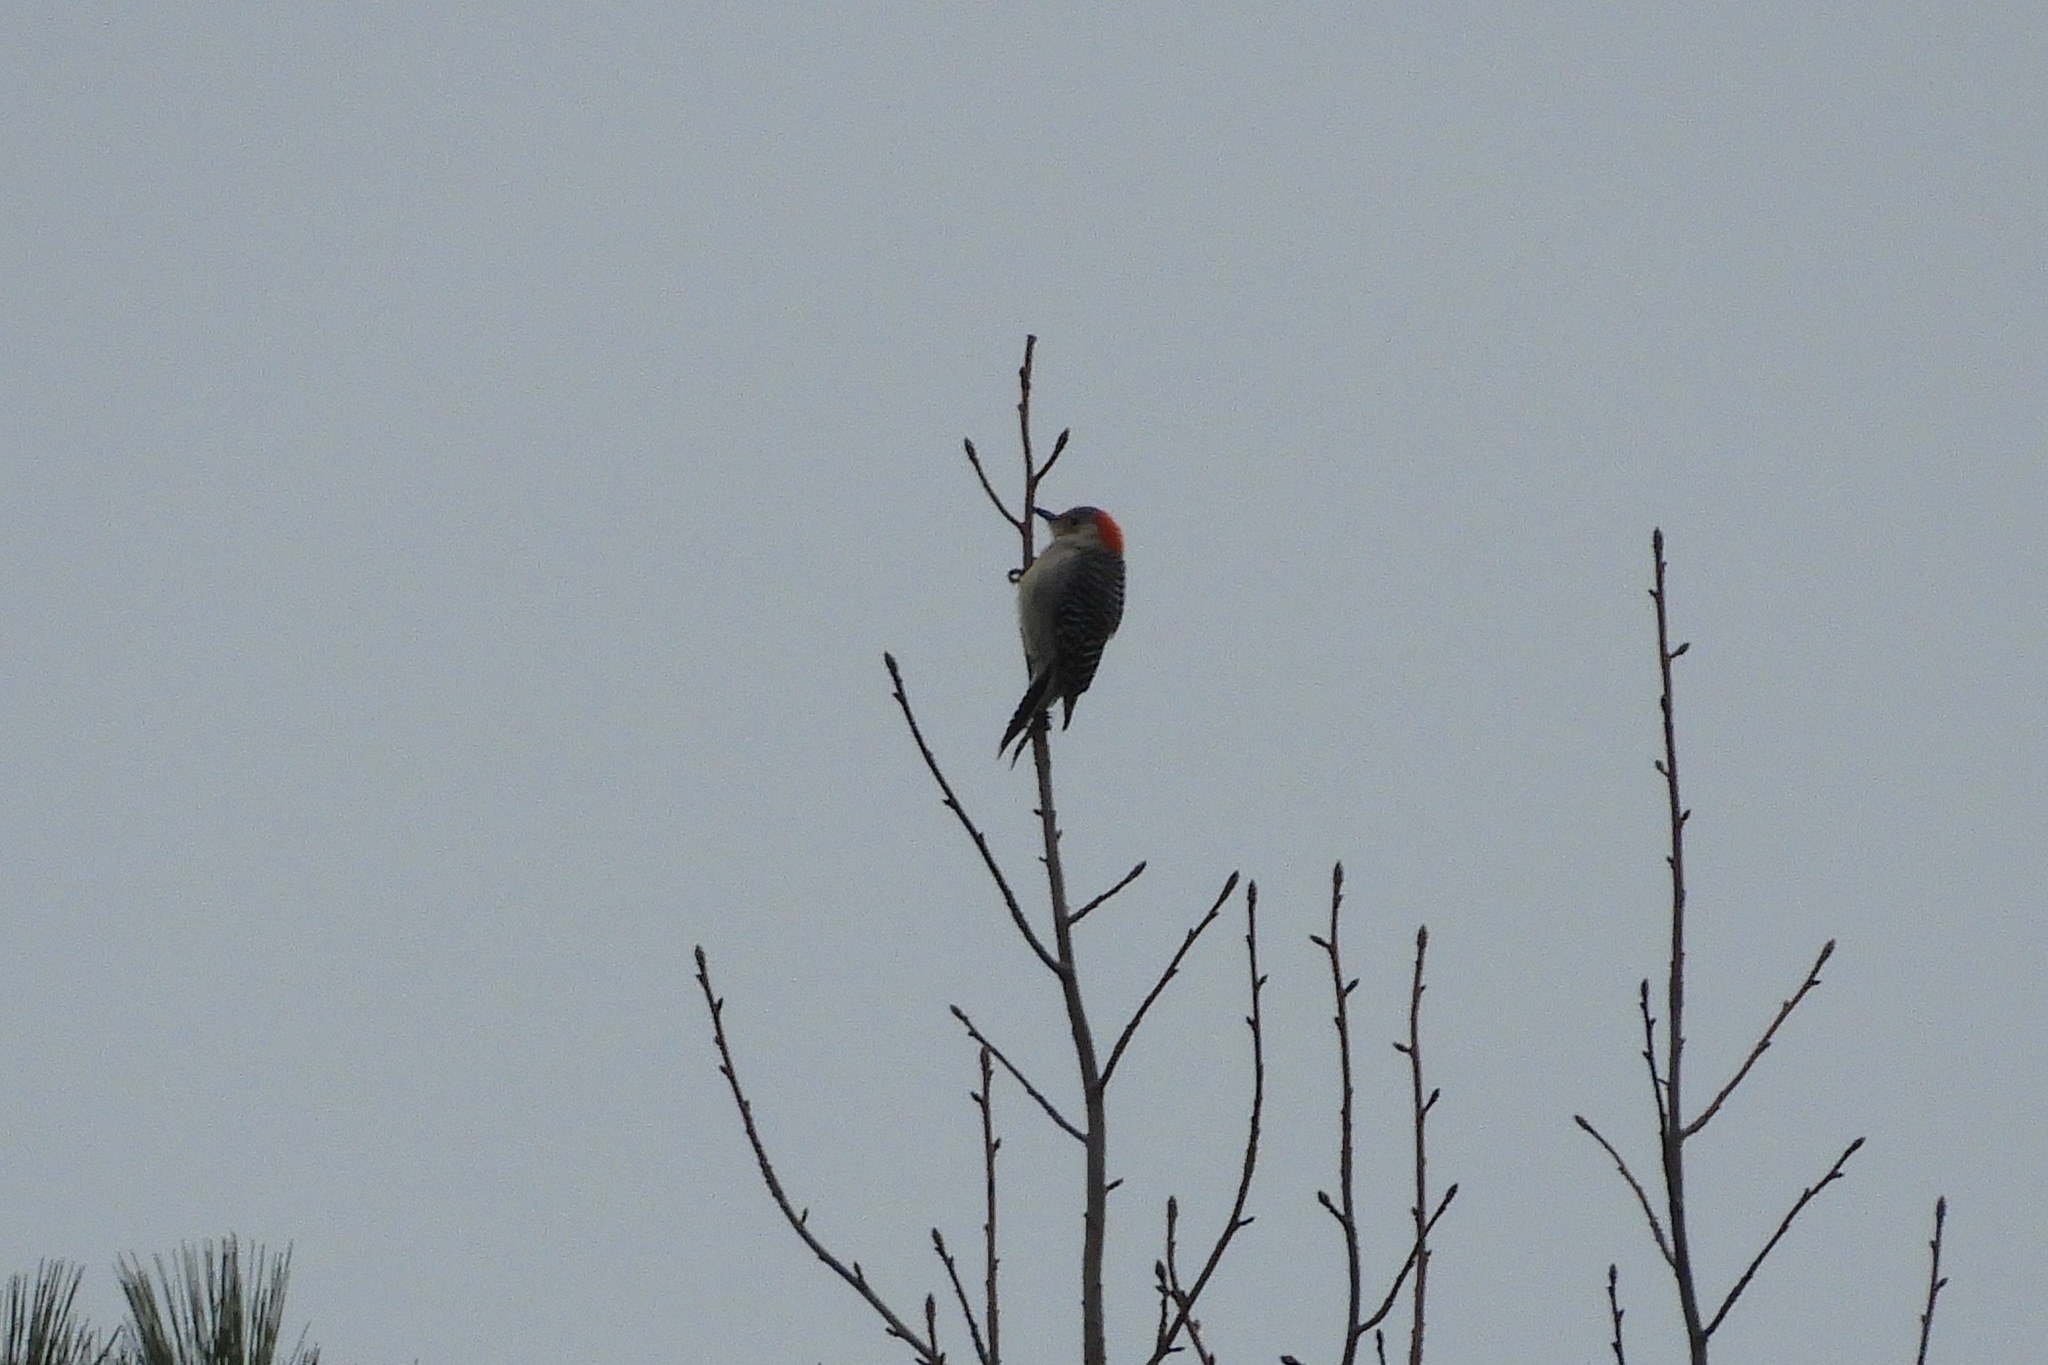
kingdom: Animalia
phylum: Chordata
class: Aves
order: Piciformes
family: Picidae
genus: Melanerpes
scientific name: Melanerpes carolinus
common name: Red-bellied woodpecker
